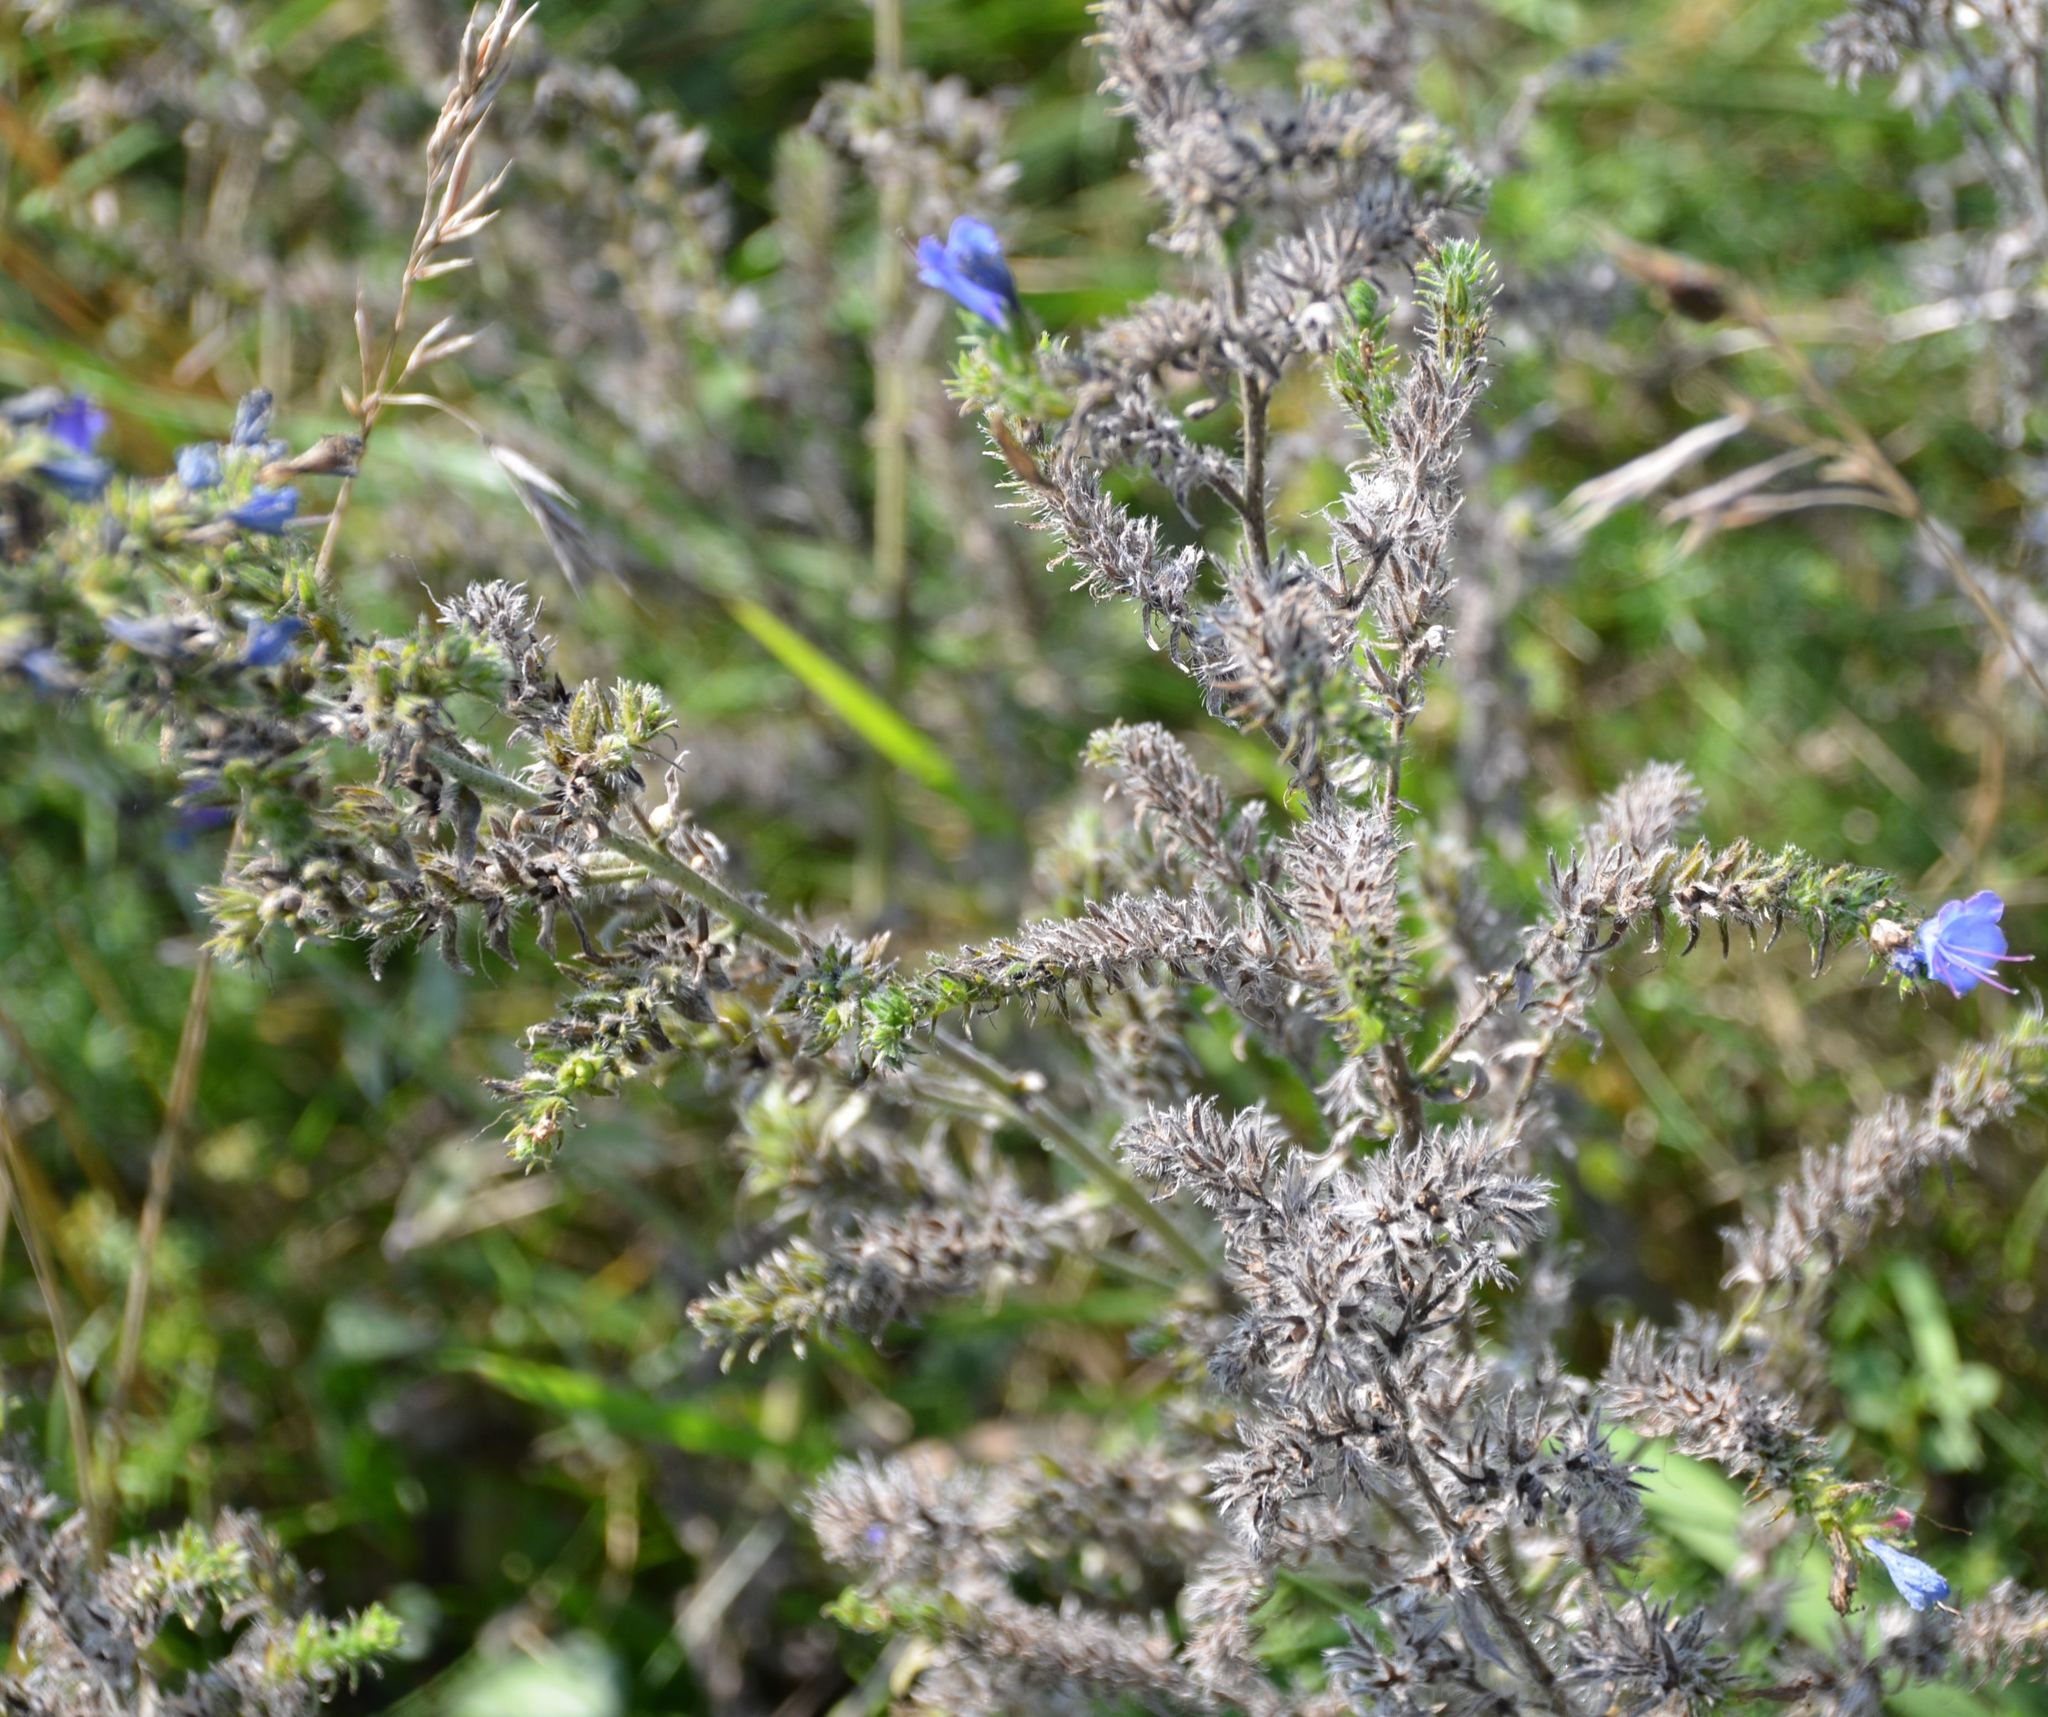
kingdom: Plantae
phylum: Tracheophyta
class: Magnoliopsida
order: Boraginales
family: Boraginaceae
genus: Echium
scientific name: Echium vulgare
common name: Common viper's bugloss
